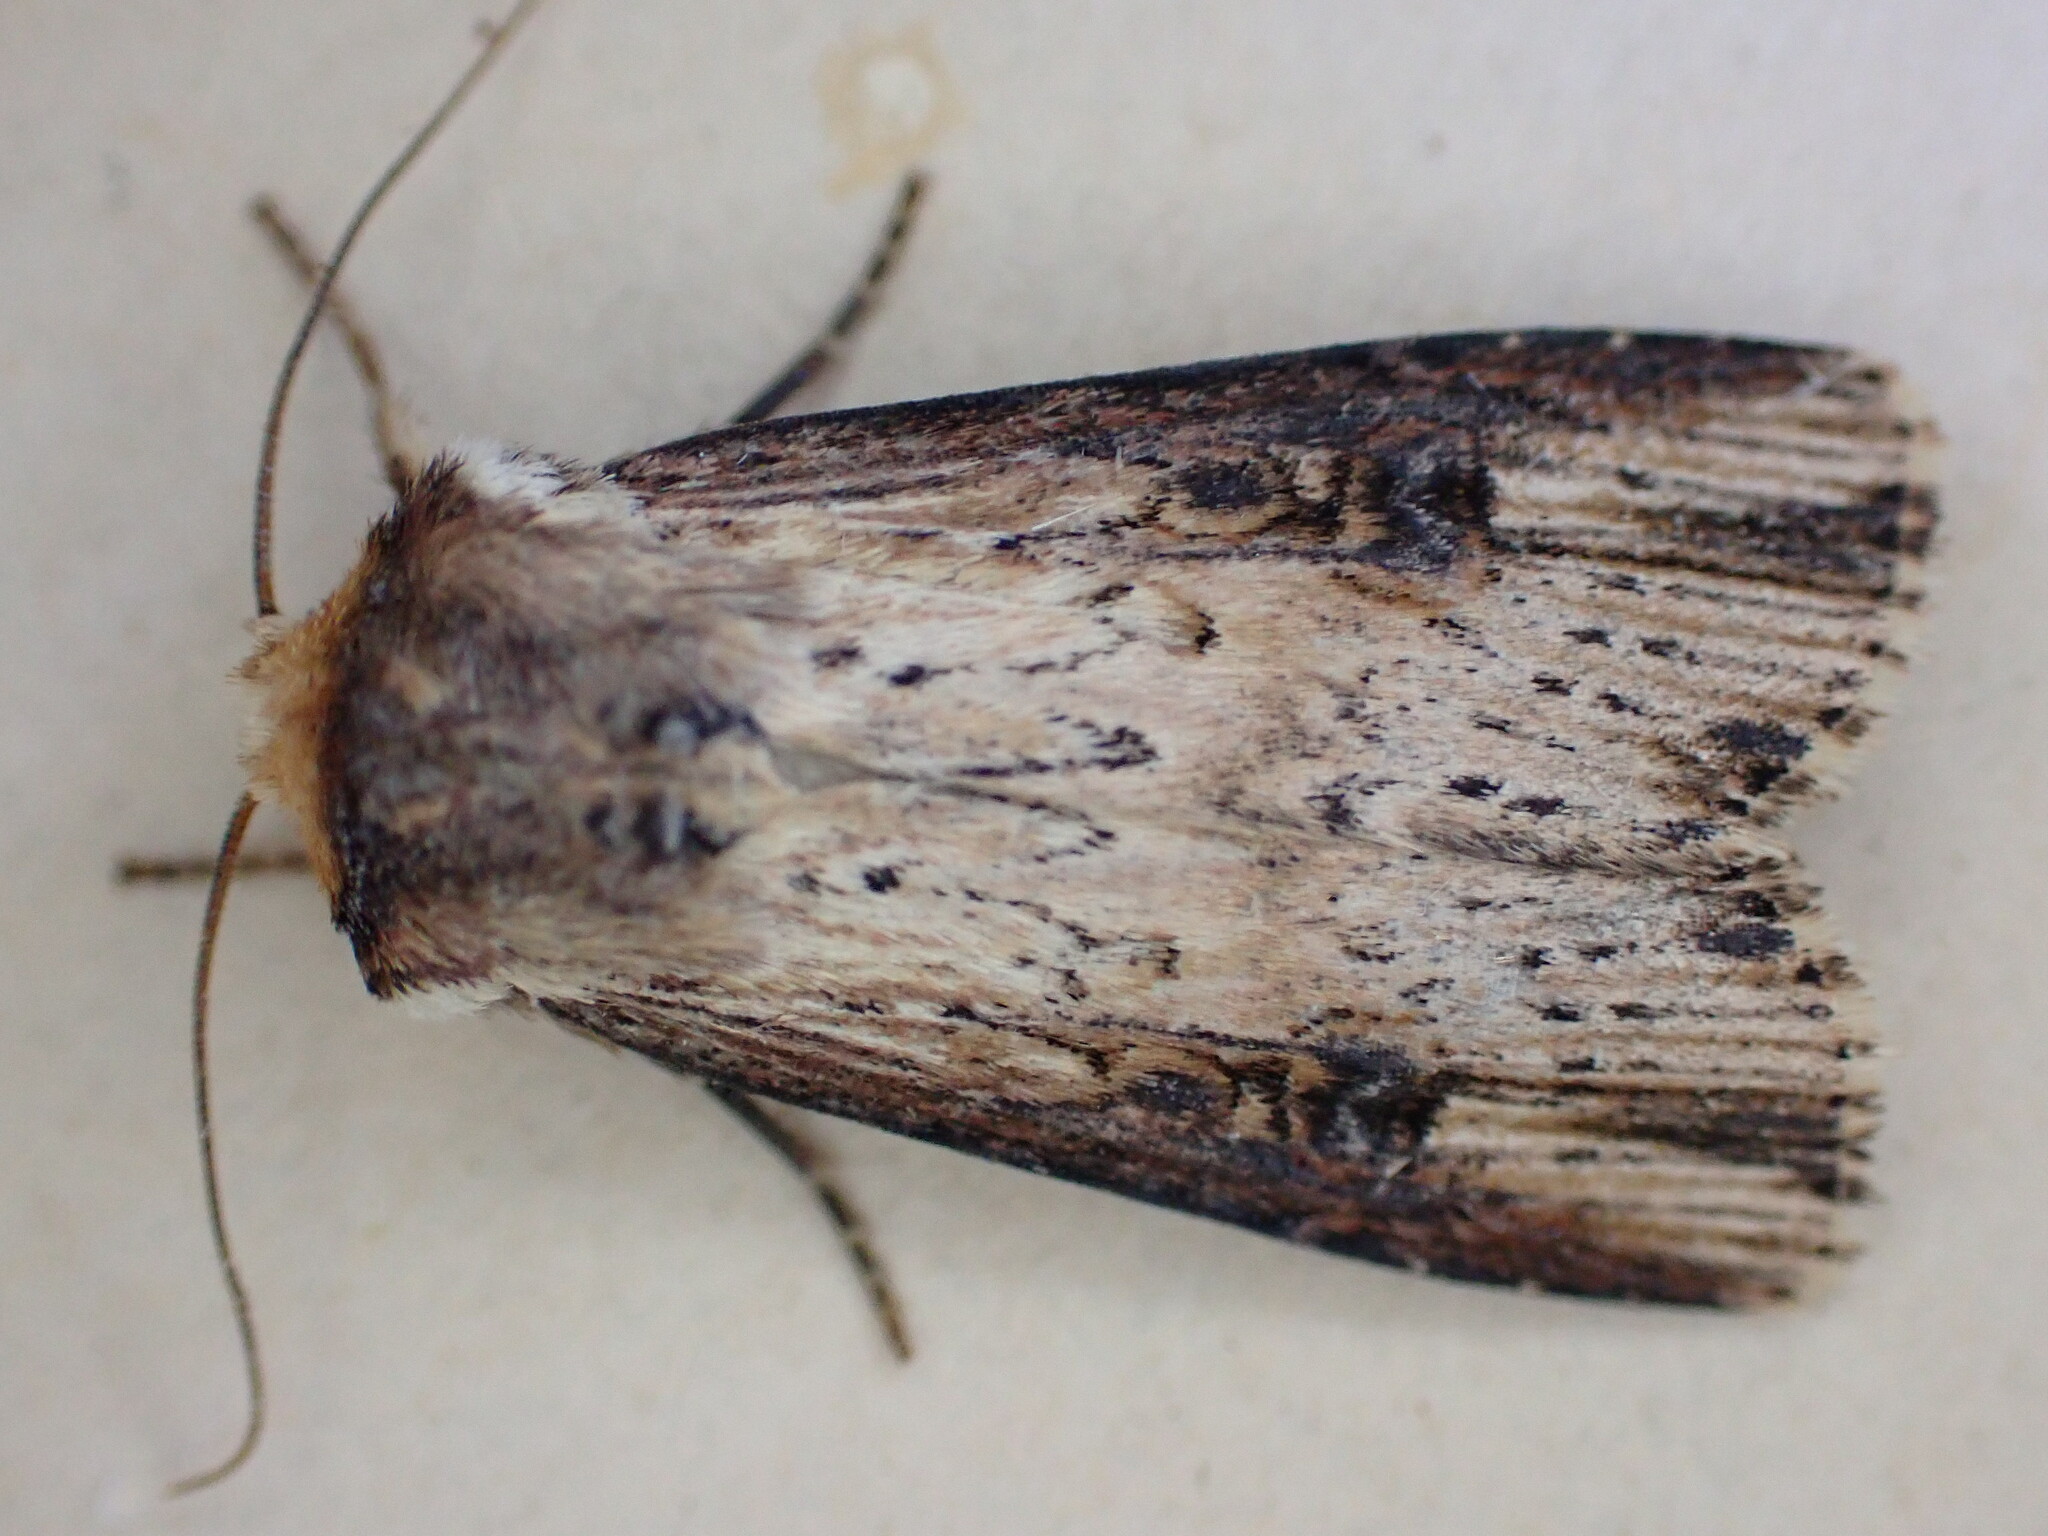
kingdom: Animalia
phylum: Arthropoda
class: Insecta
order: Lepidoptera
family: Noctuidae
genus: Axylia
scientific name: Axylia putris
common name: Flame
